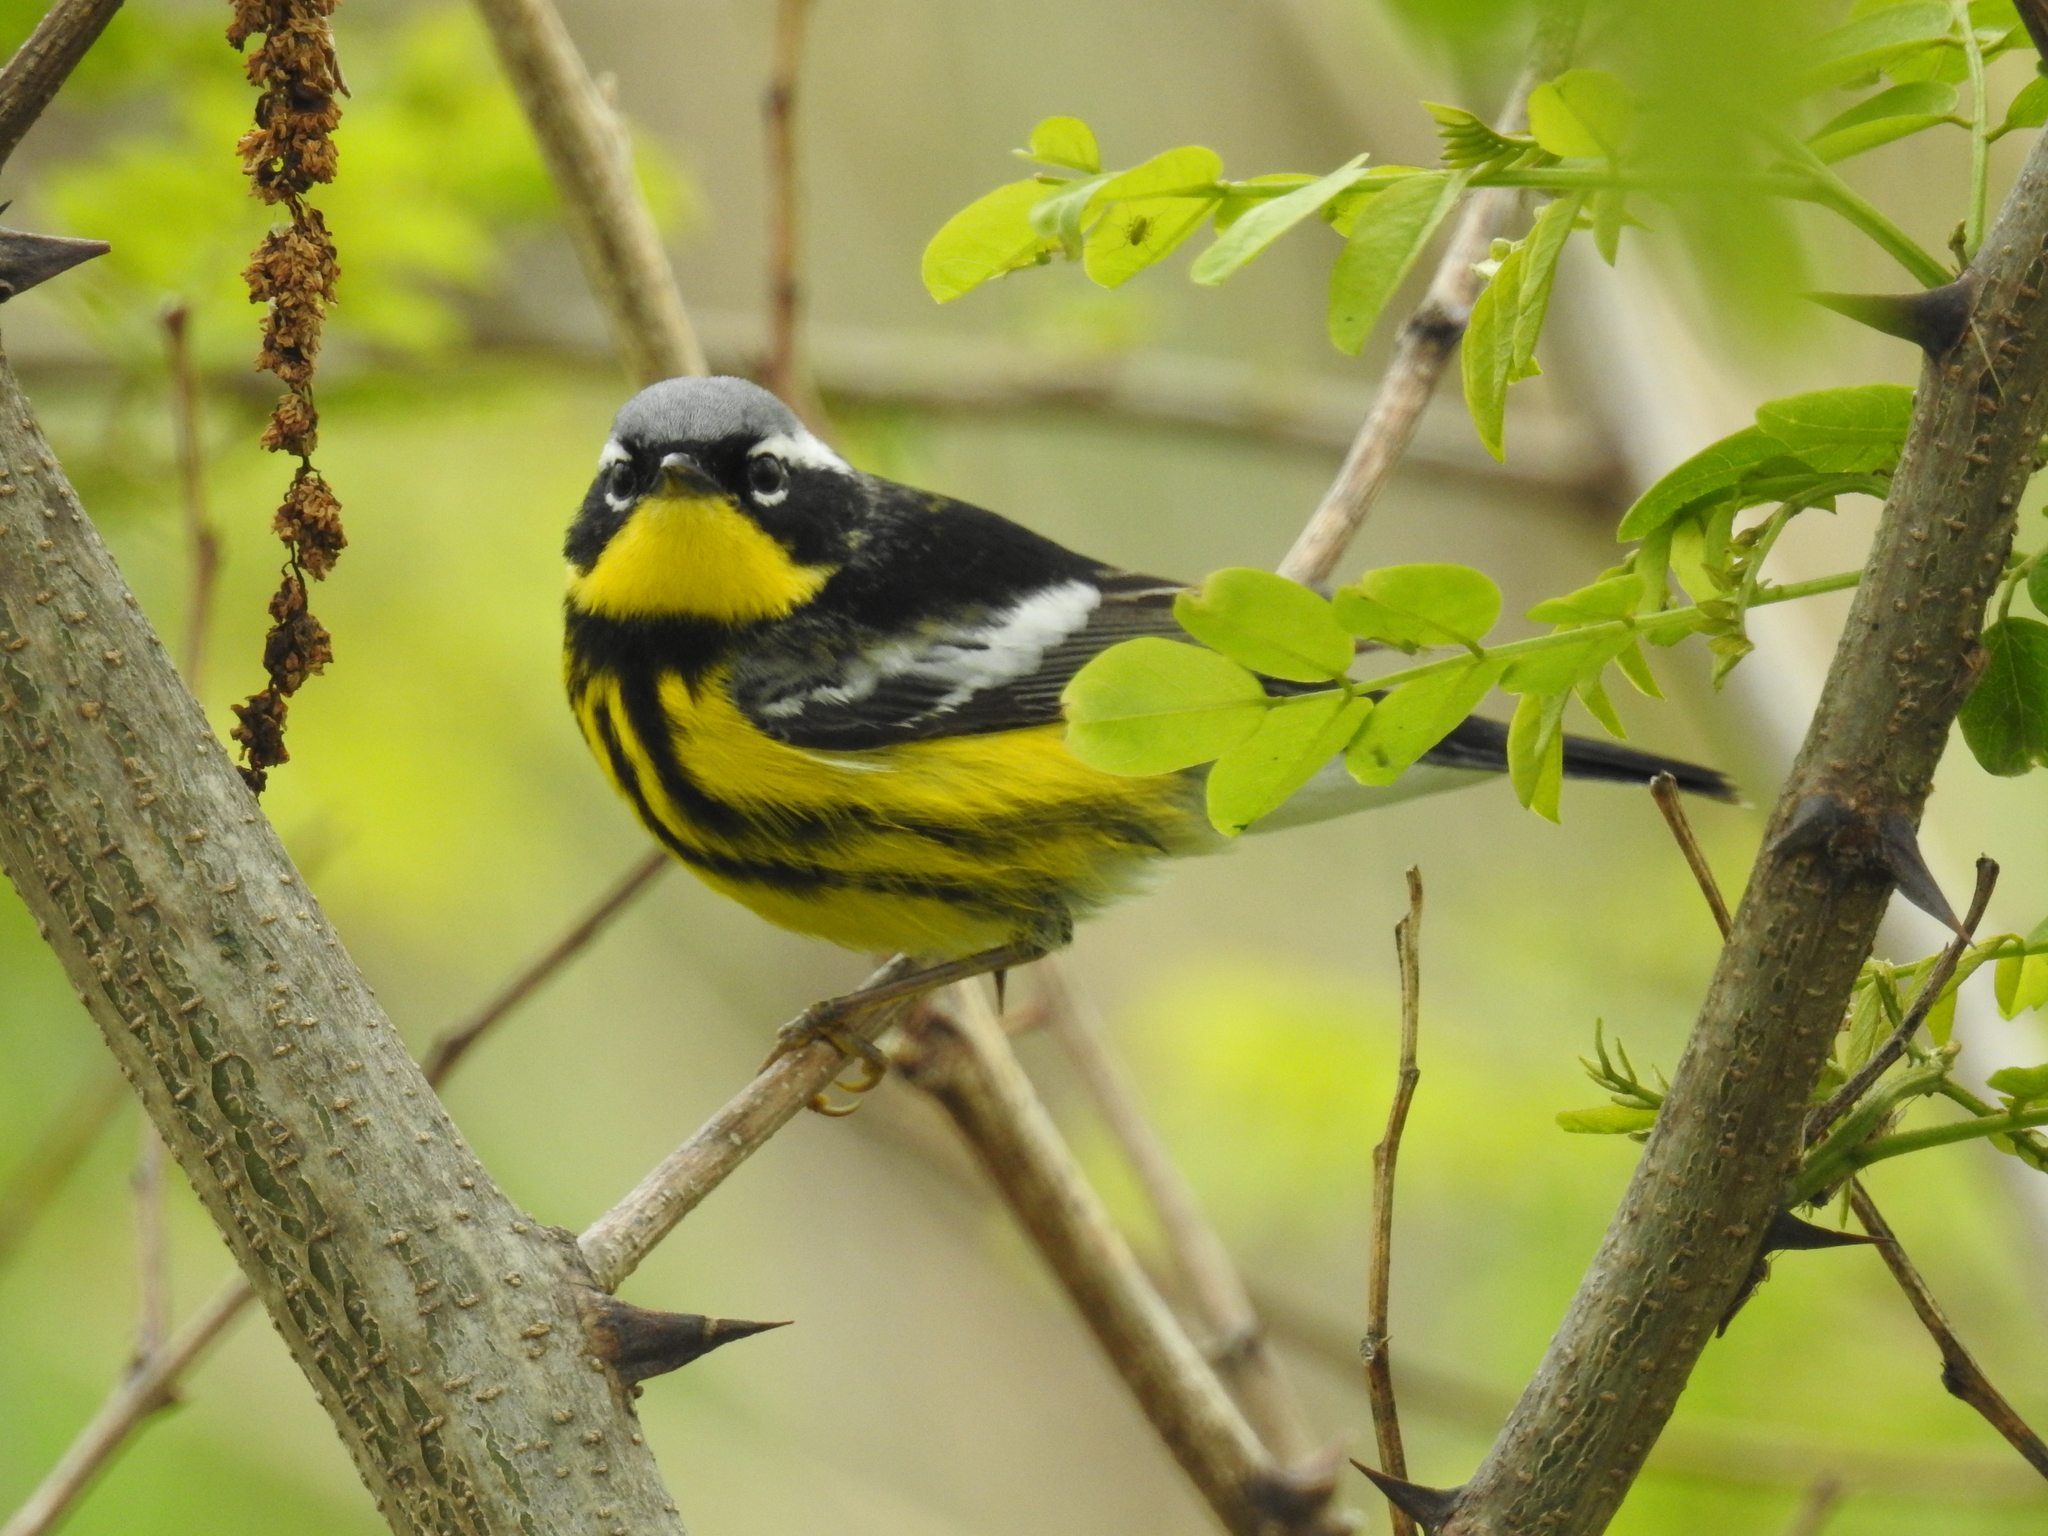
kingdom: Animalia
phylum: Chordata
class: Aves
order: Passeriformes
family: Parulidae
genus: Setophaga
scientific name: Setophaga magnolia
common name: Magnolia warbler
